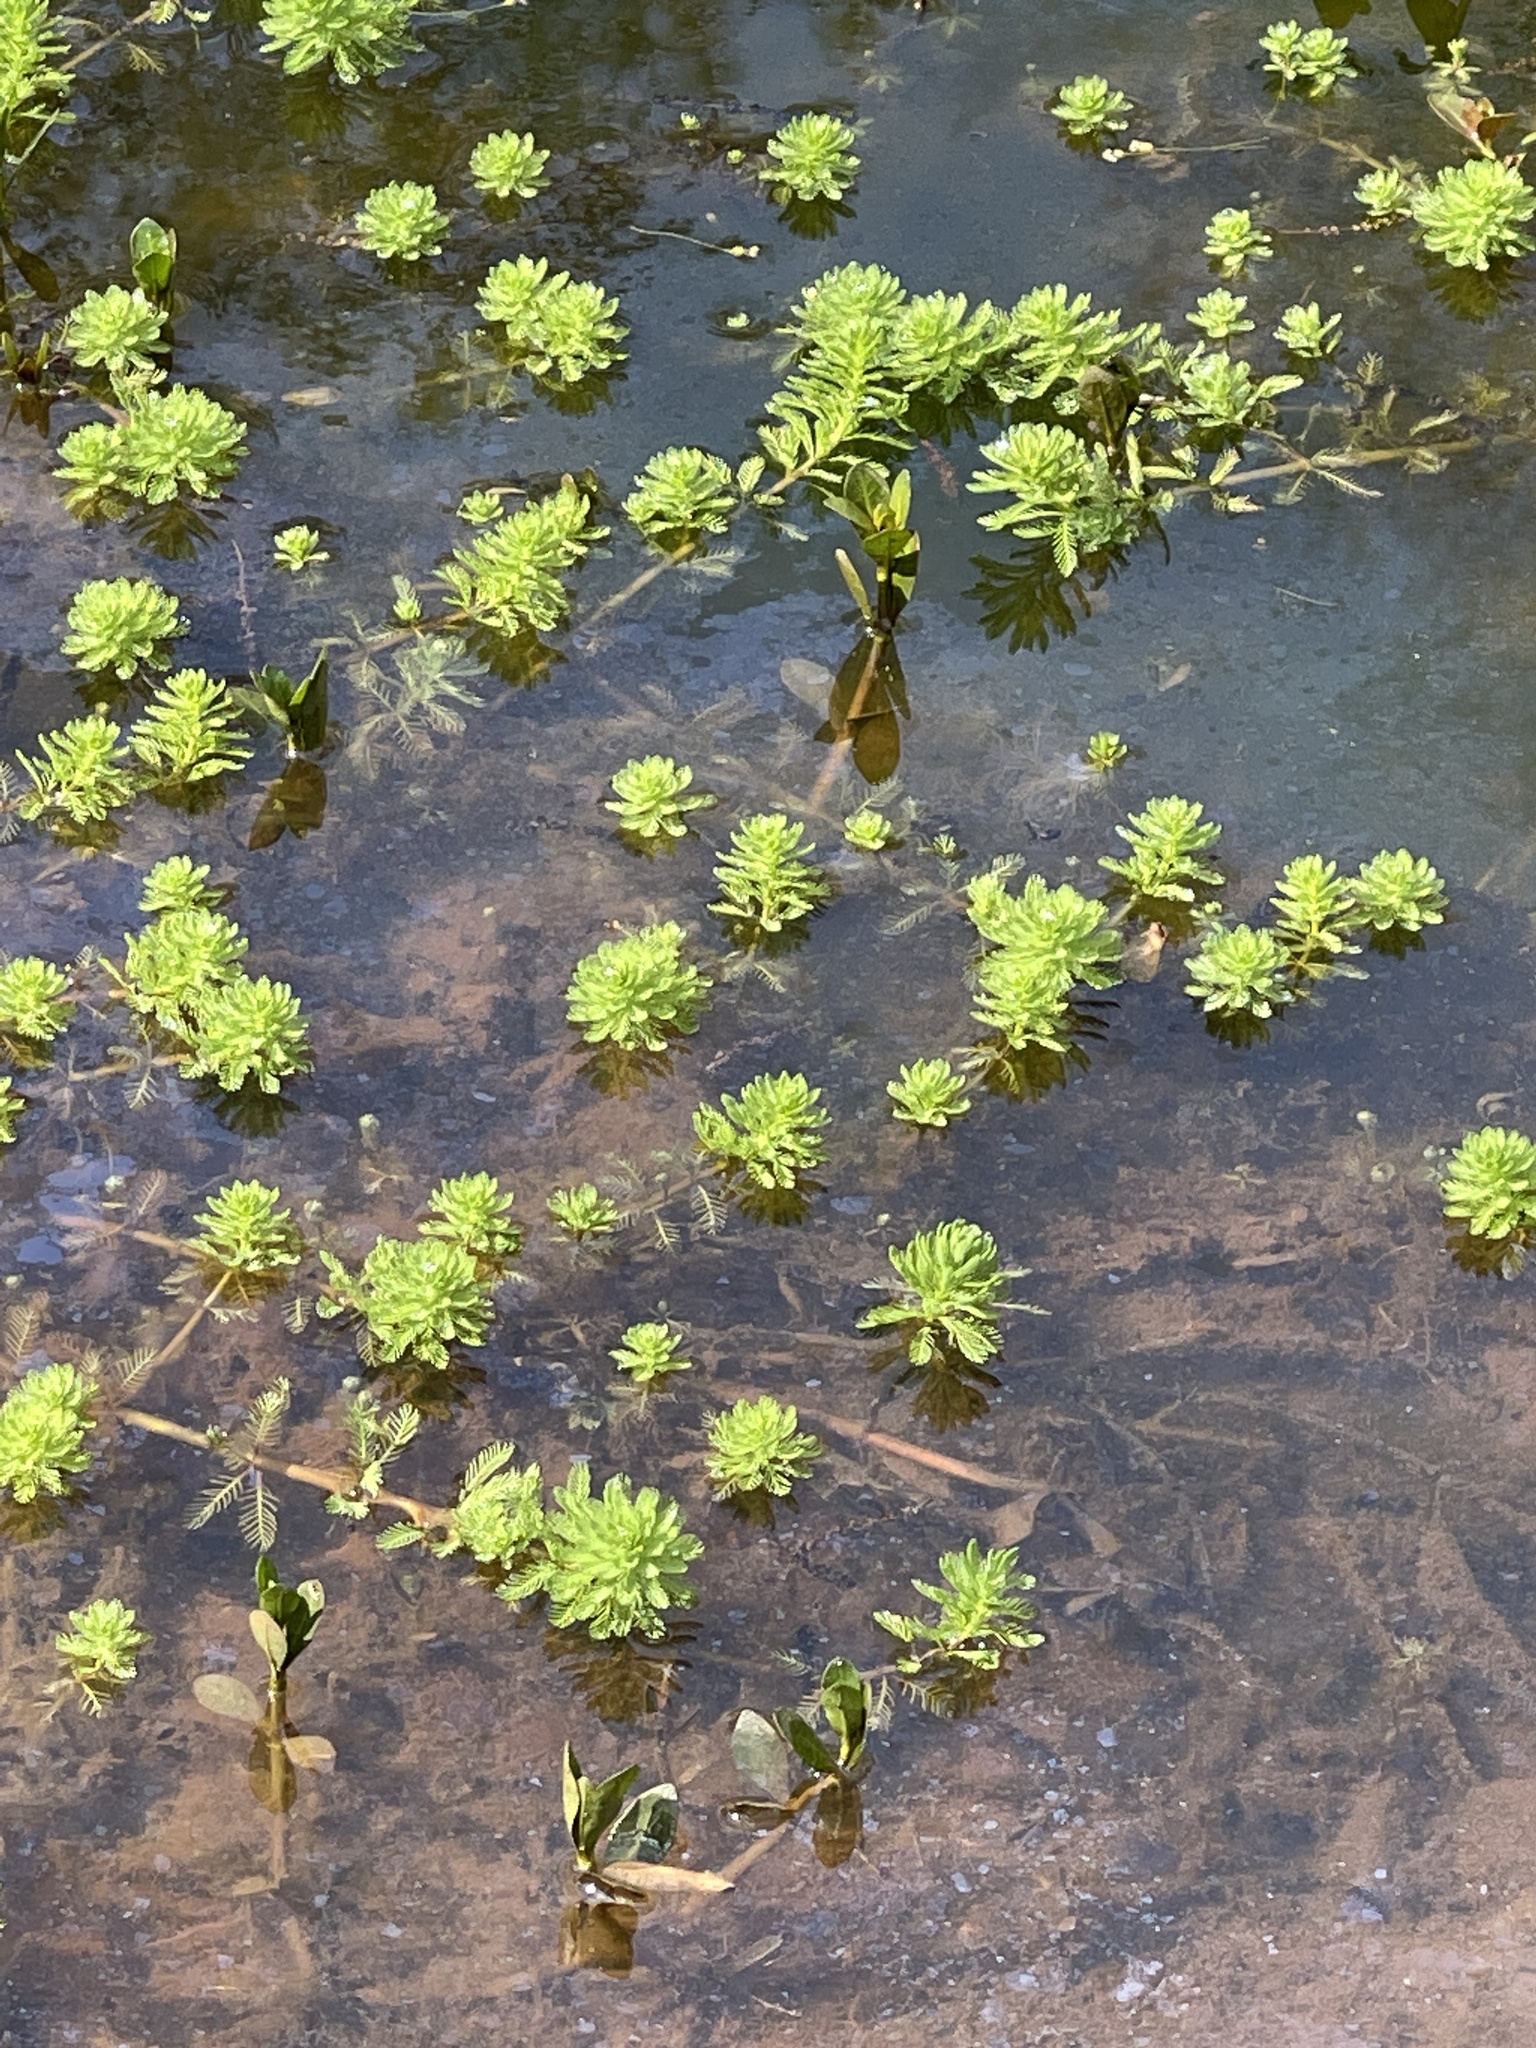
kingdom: Plantae
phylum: Tracheophyta
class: Magnoliopsida
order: Saxifragales
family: Haloragaceae
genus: Myriophyllum
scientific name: Myriophyllum aquaticum
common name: Parrot's feather
